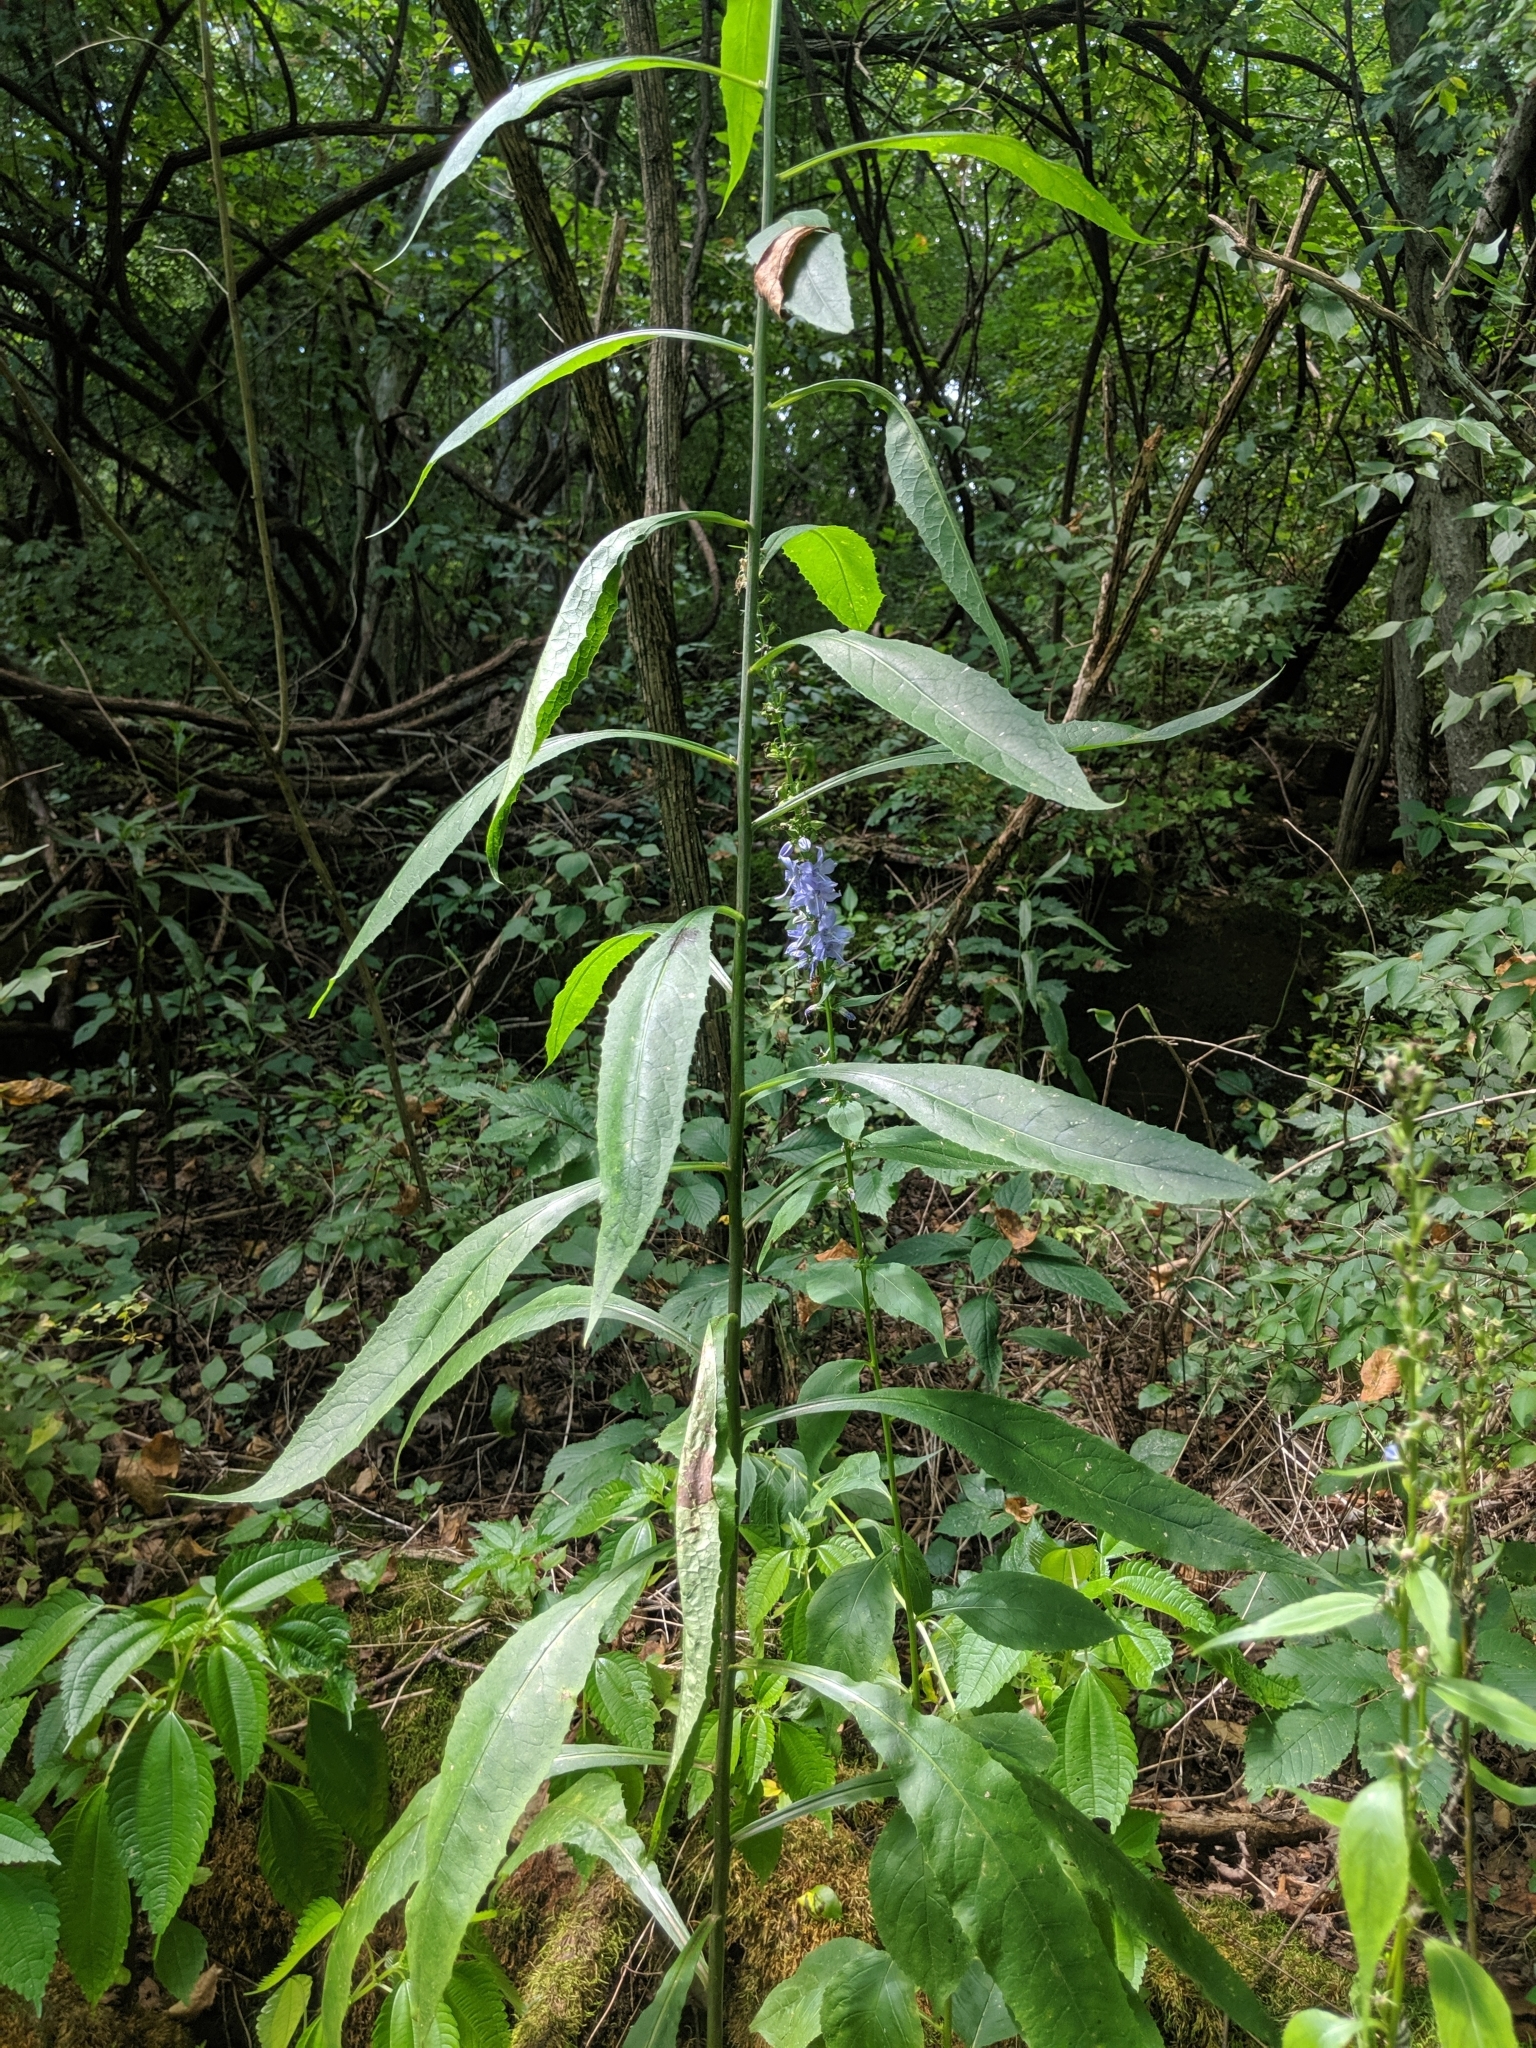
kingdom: Plantae
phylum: Tracheophyta
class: Magnoliopsida
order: Asterales
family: Campanulaceae
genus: Campanulastrum
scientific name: Campanulastrum americanum
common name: American bellflower
